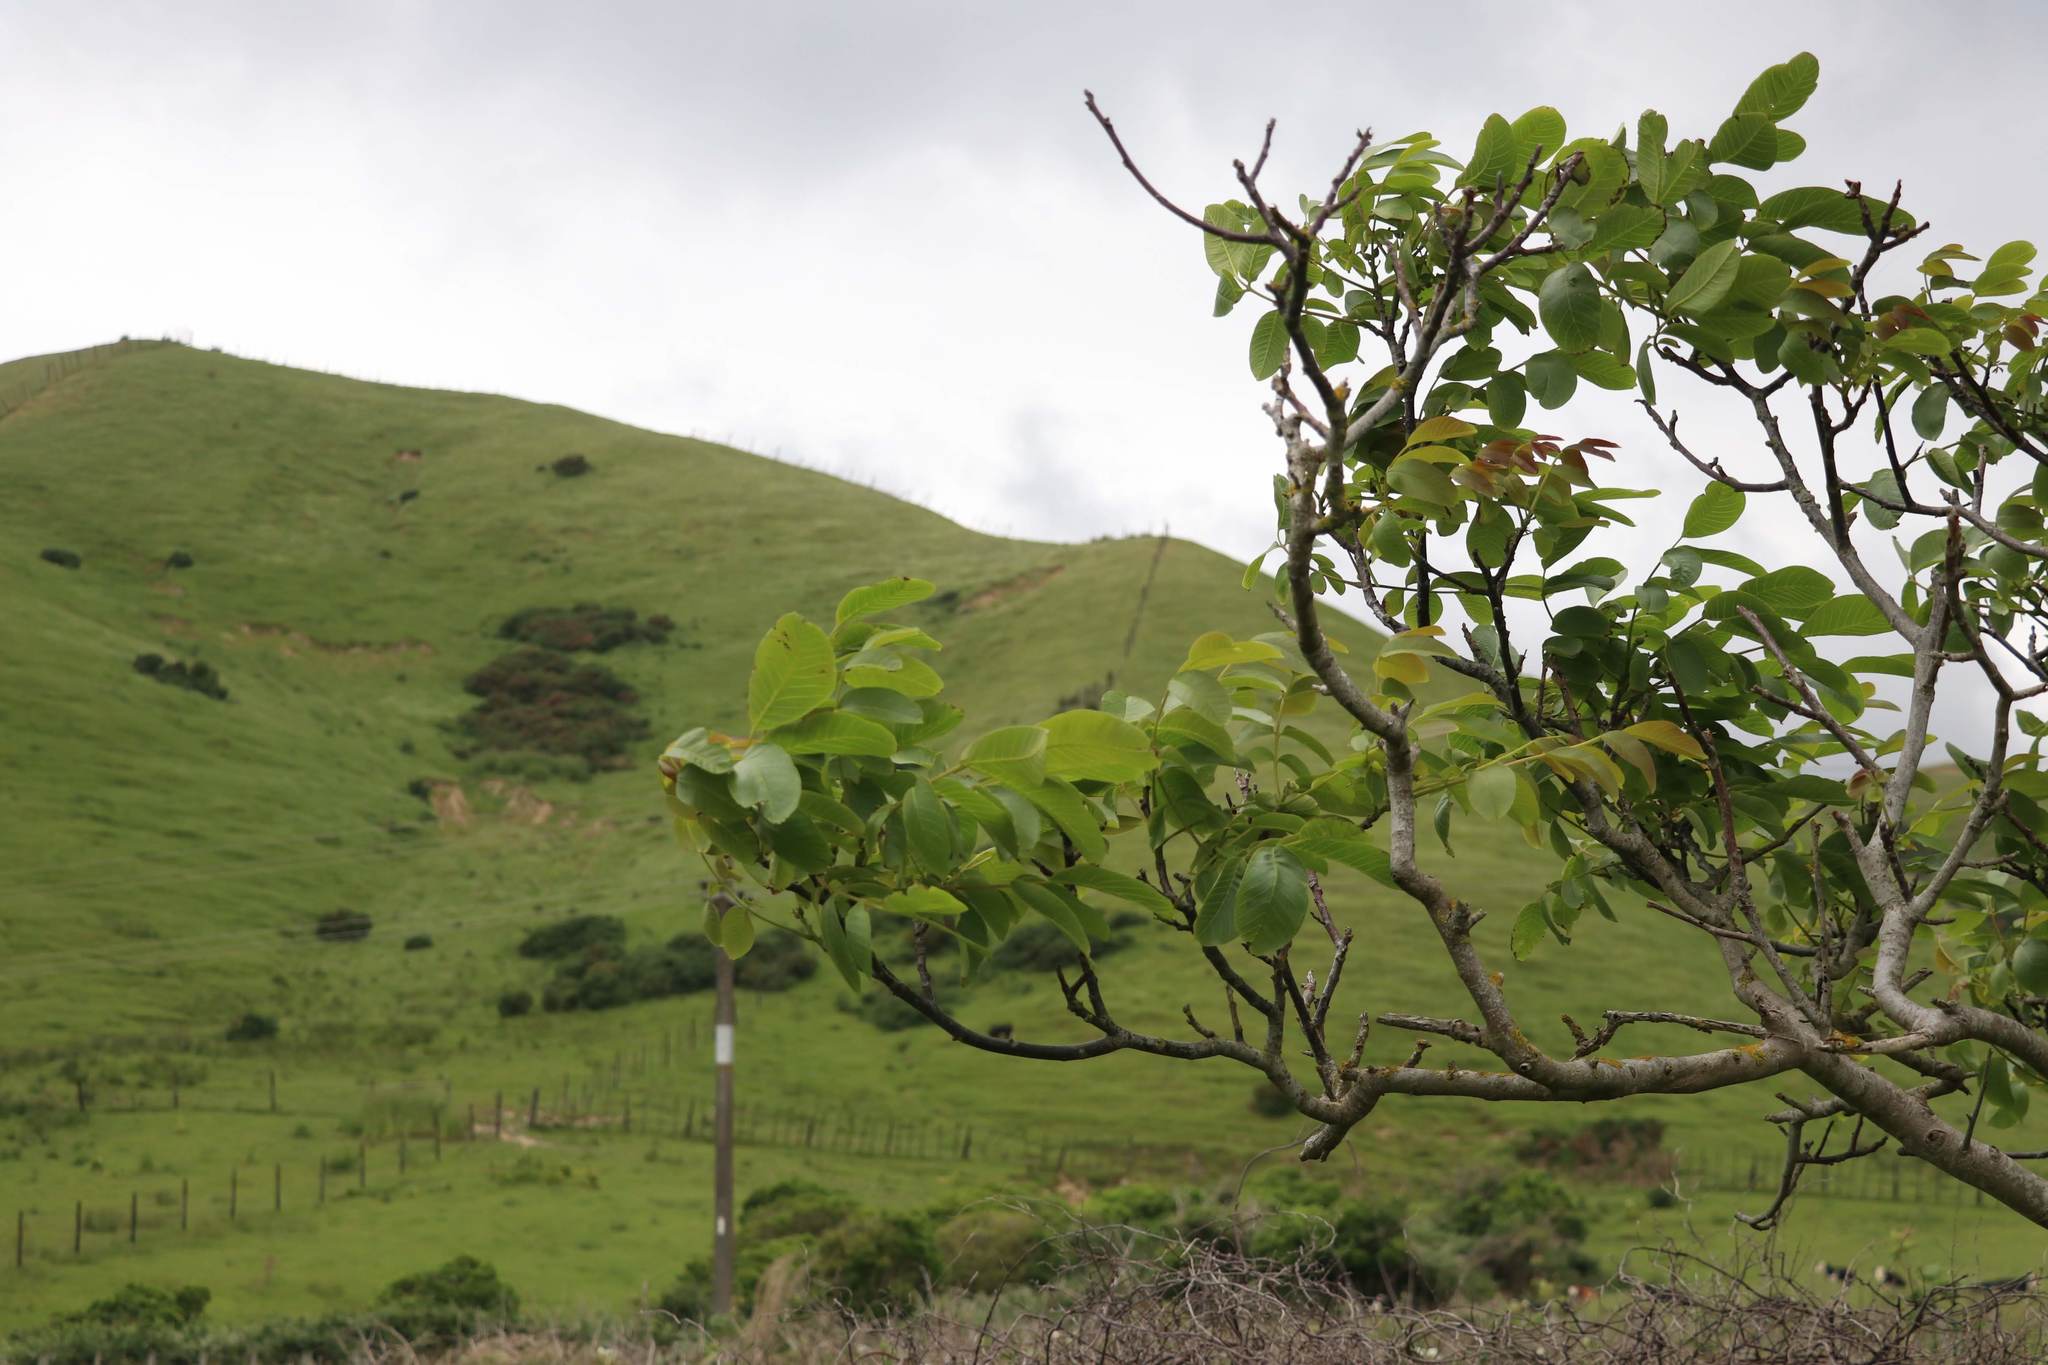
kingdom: Plantae
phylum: Tracheophyta
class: Magnoliopsida
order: Fagales
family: Juglandaceae
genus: Juglans
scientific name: Juglans regia
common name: Walnut
